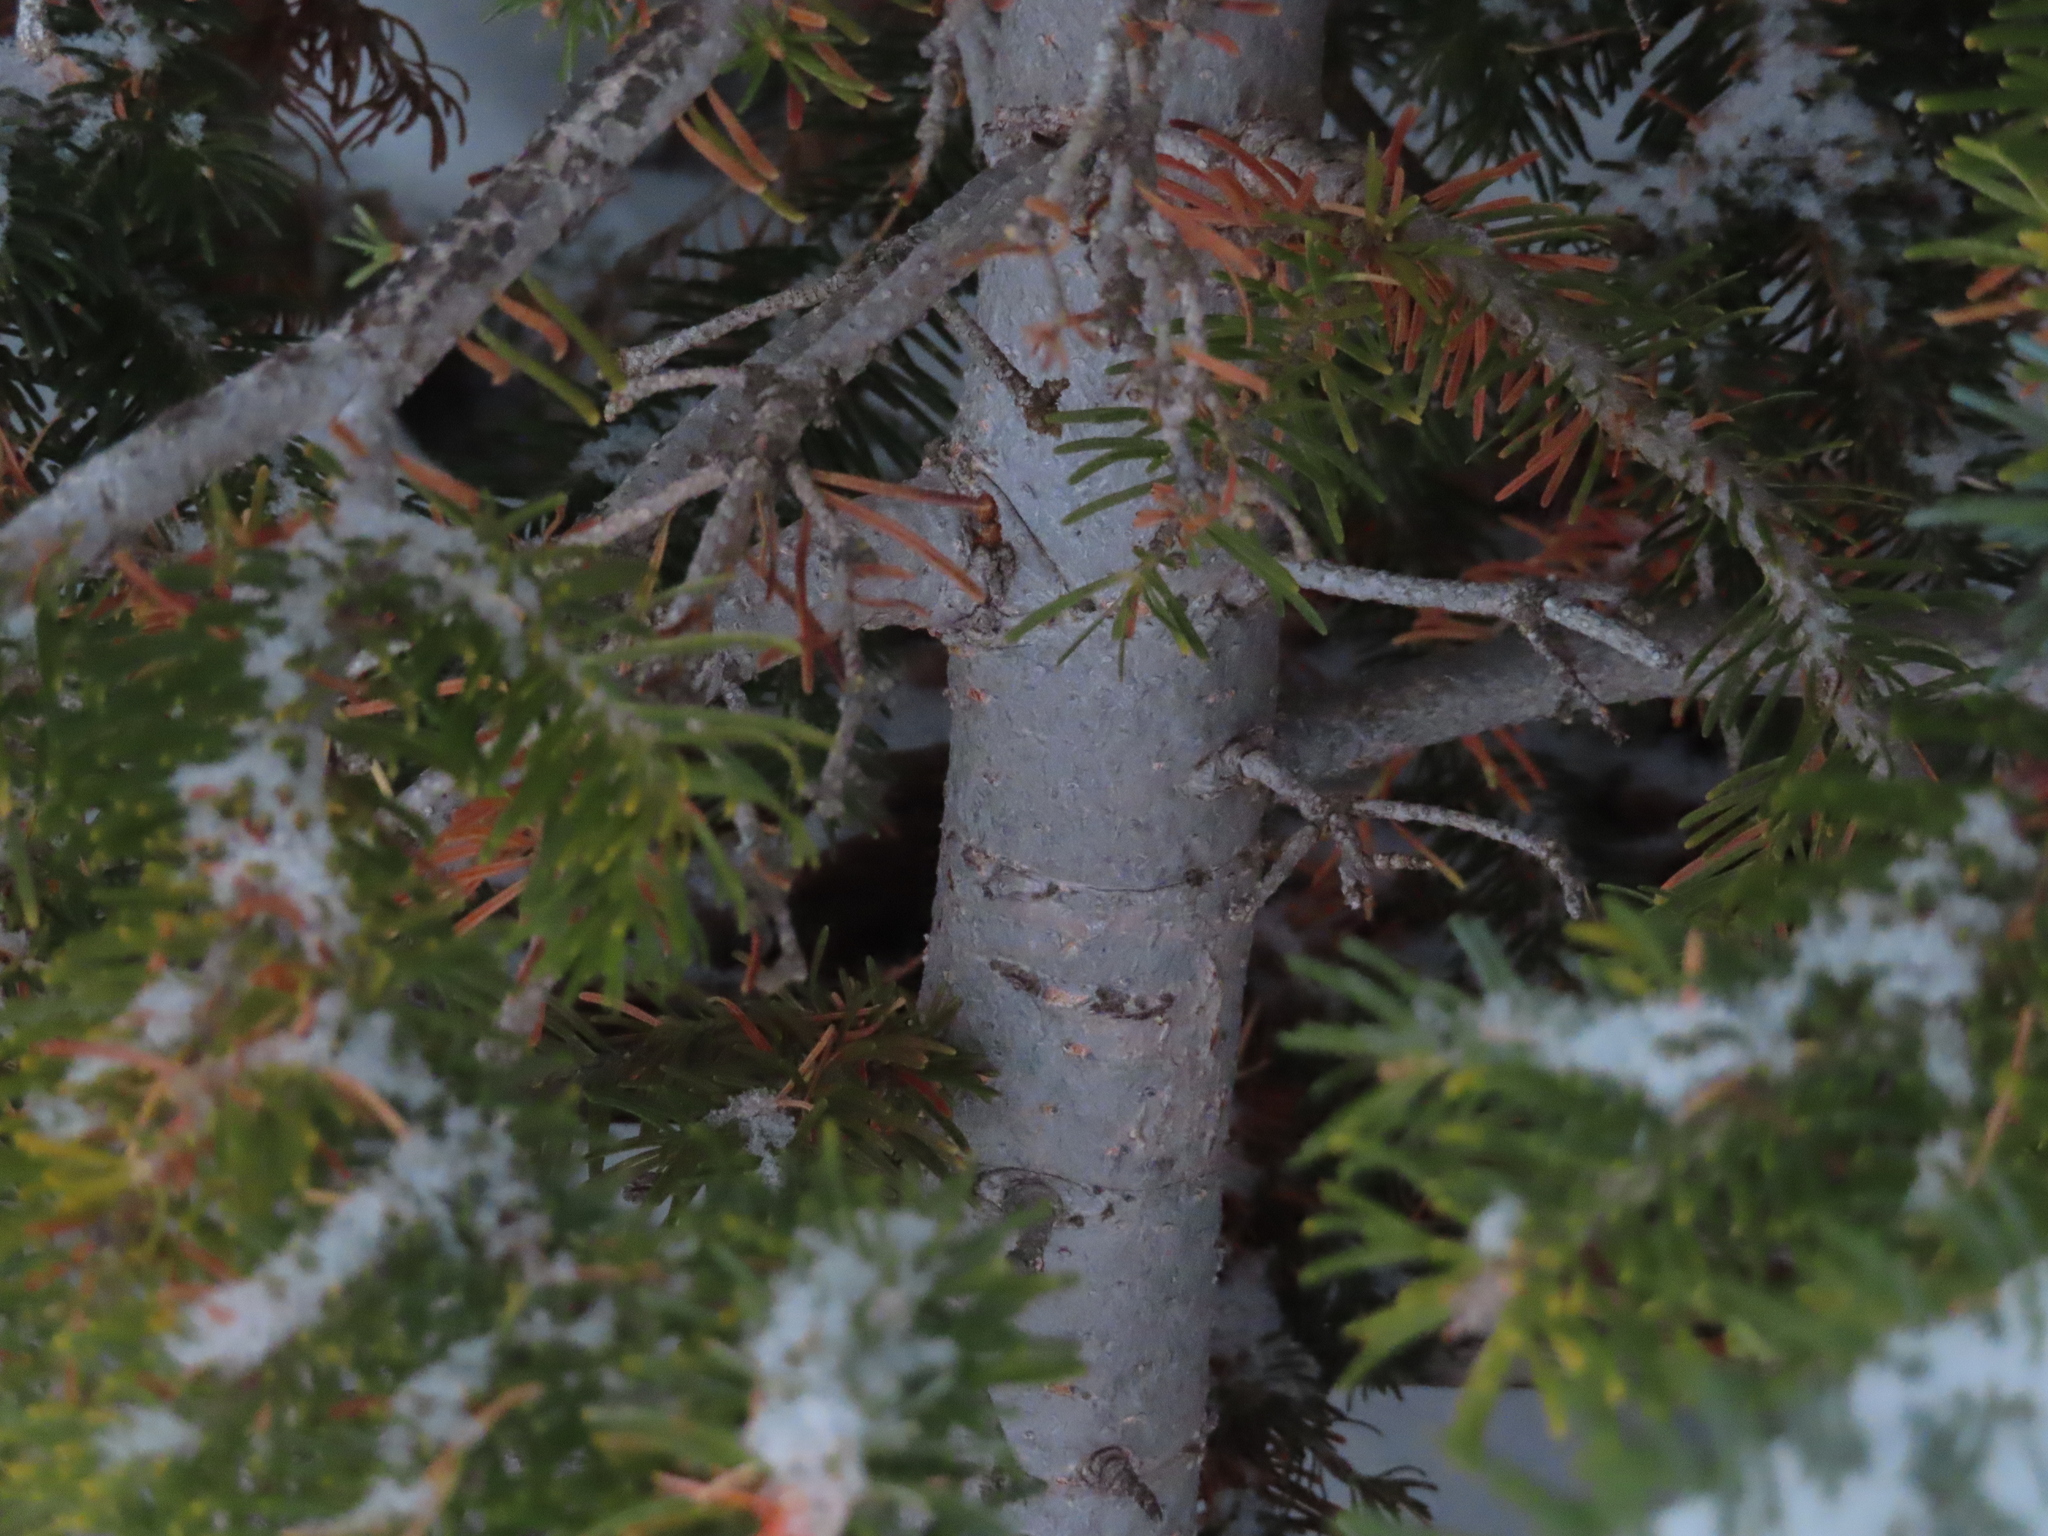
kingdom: Plantae
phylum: Tracheophyta
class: Pinopsida
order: Pinales
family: Pinaceae
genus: Abies
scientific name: Abies lasiocarpa
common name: Subalpine fir
